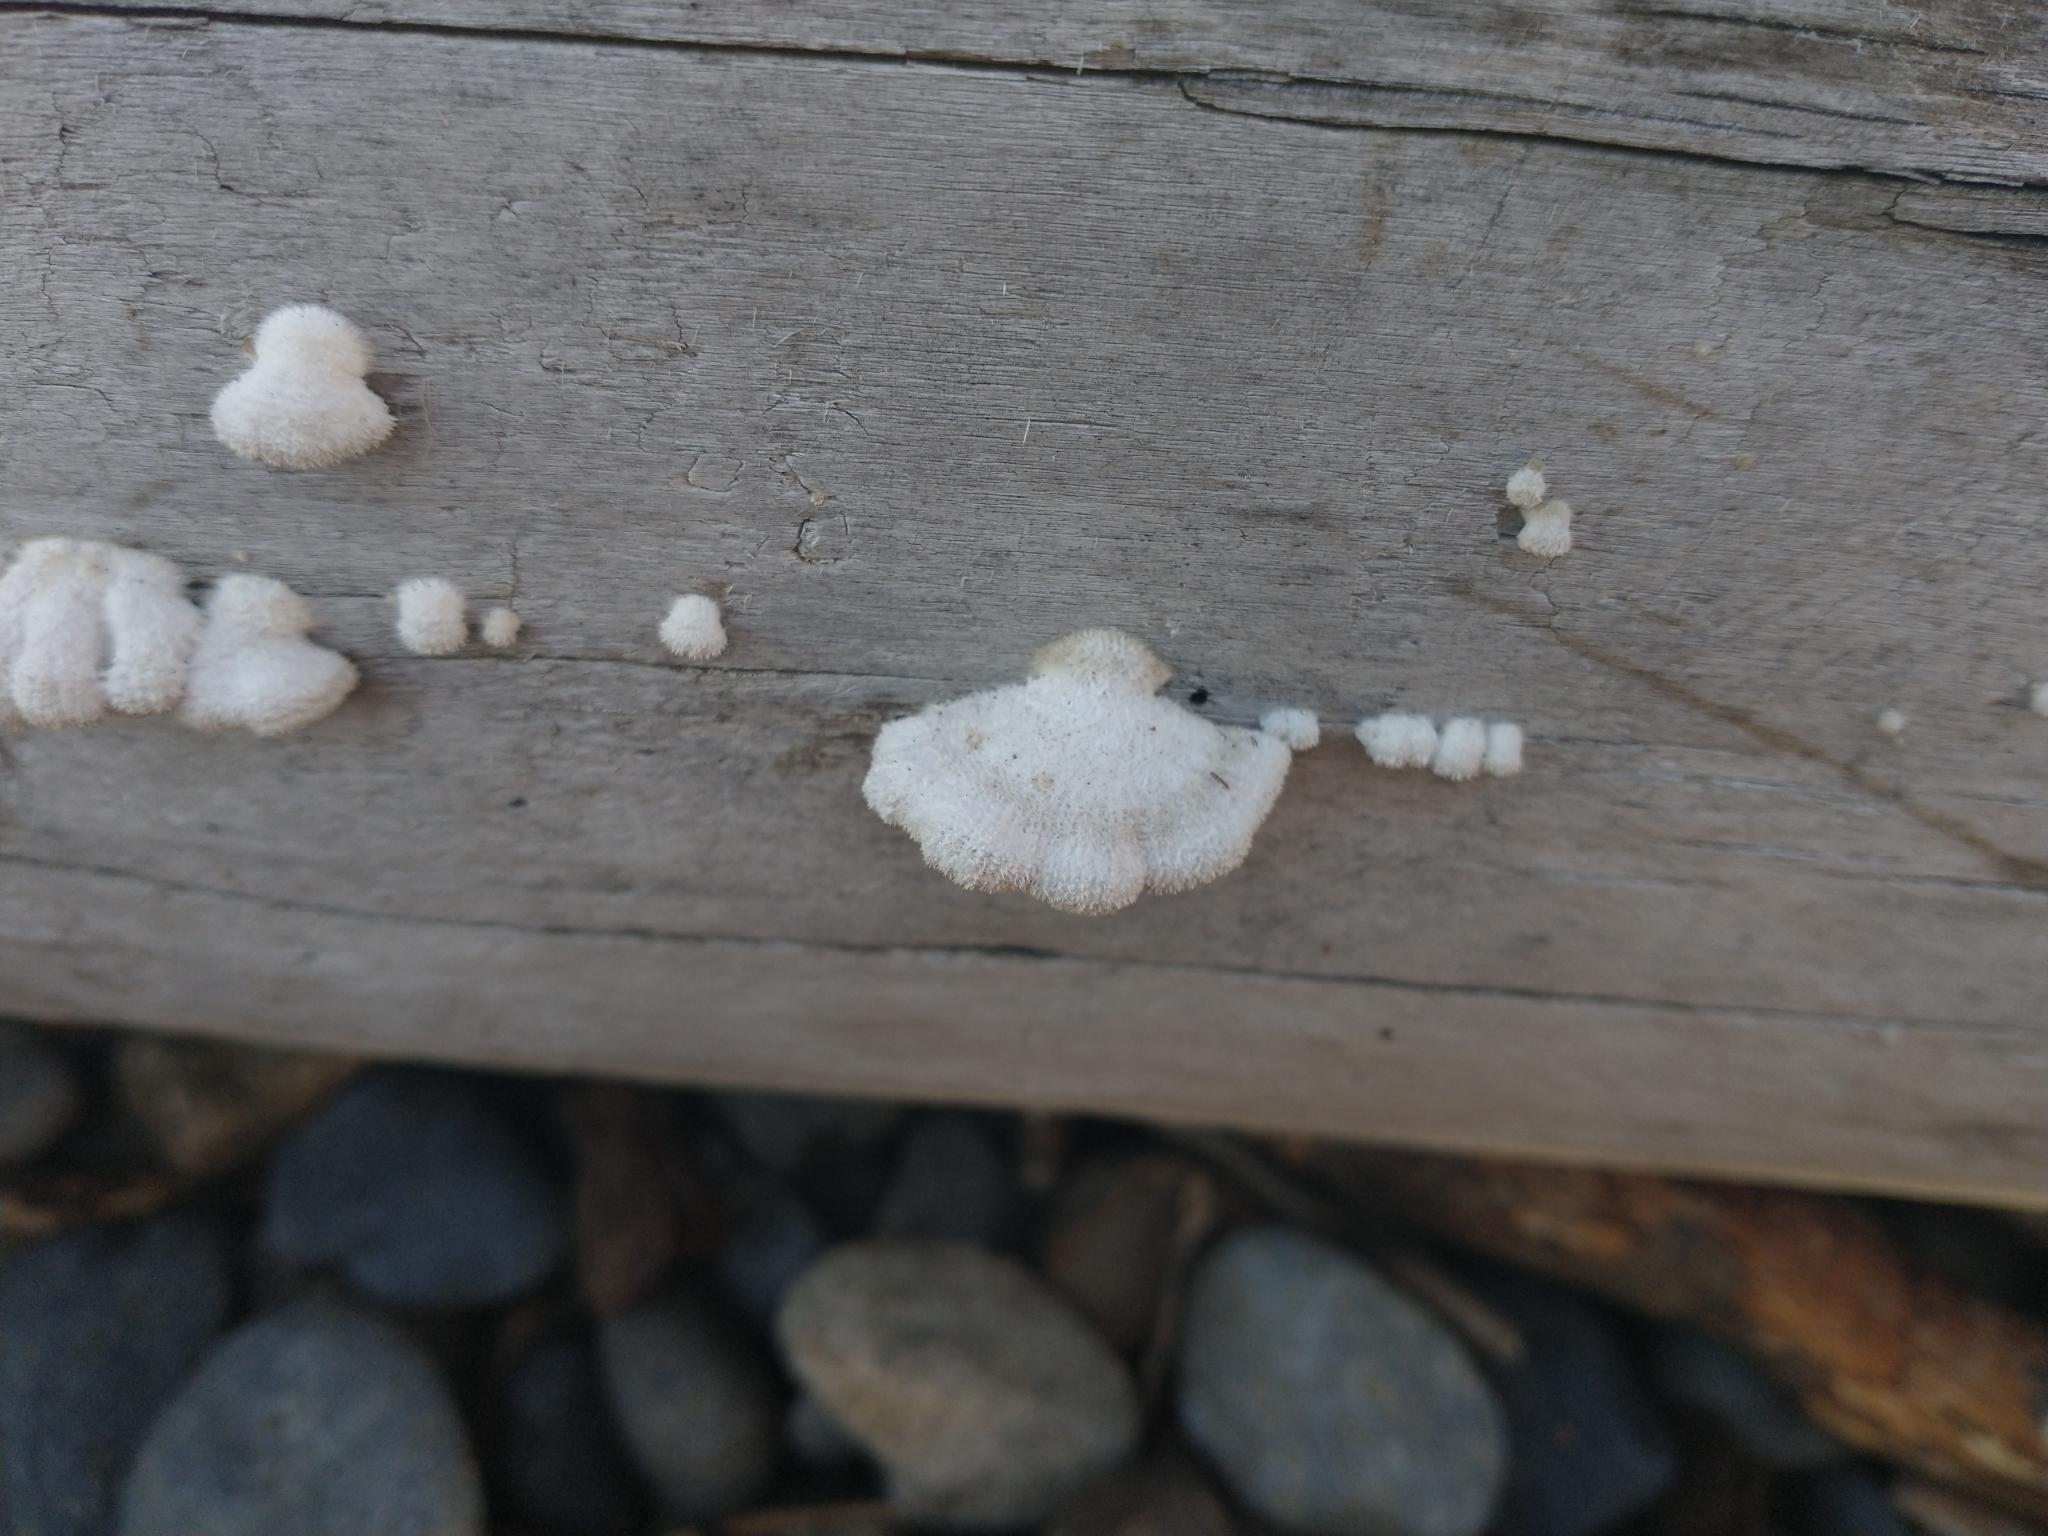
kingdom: Fungi
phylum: Basidiomycota
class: Agaricomycetes
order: Agaricales
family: Schizophyllaceae
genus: Schizophyllum
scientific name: Schizophyllum commune
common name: Common porecrust
